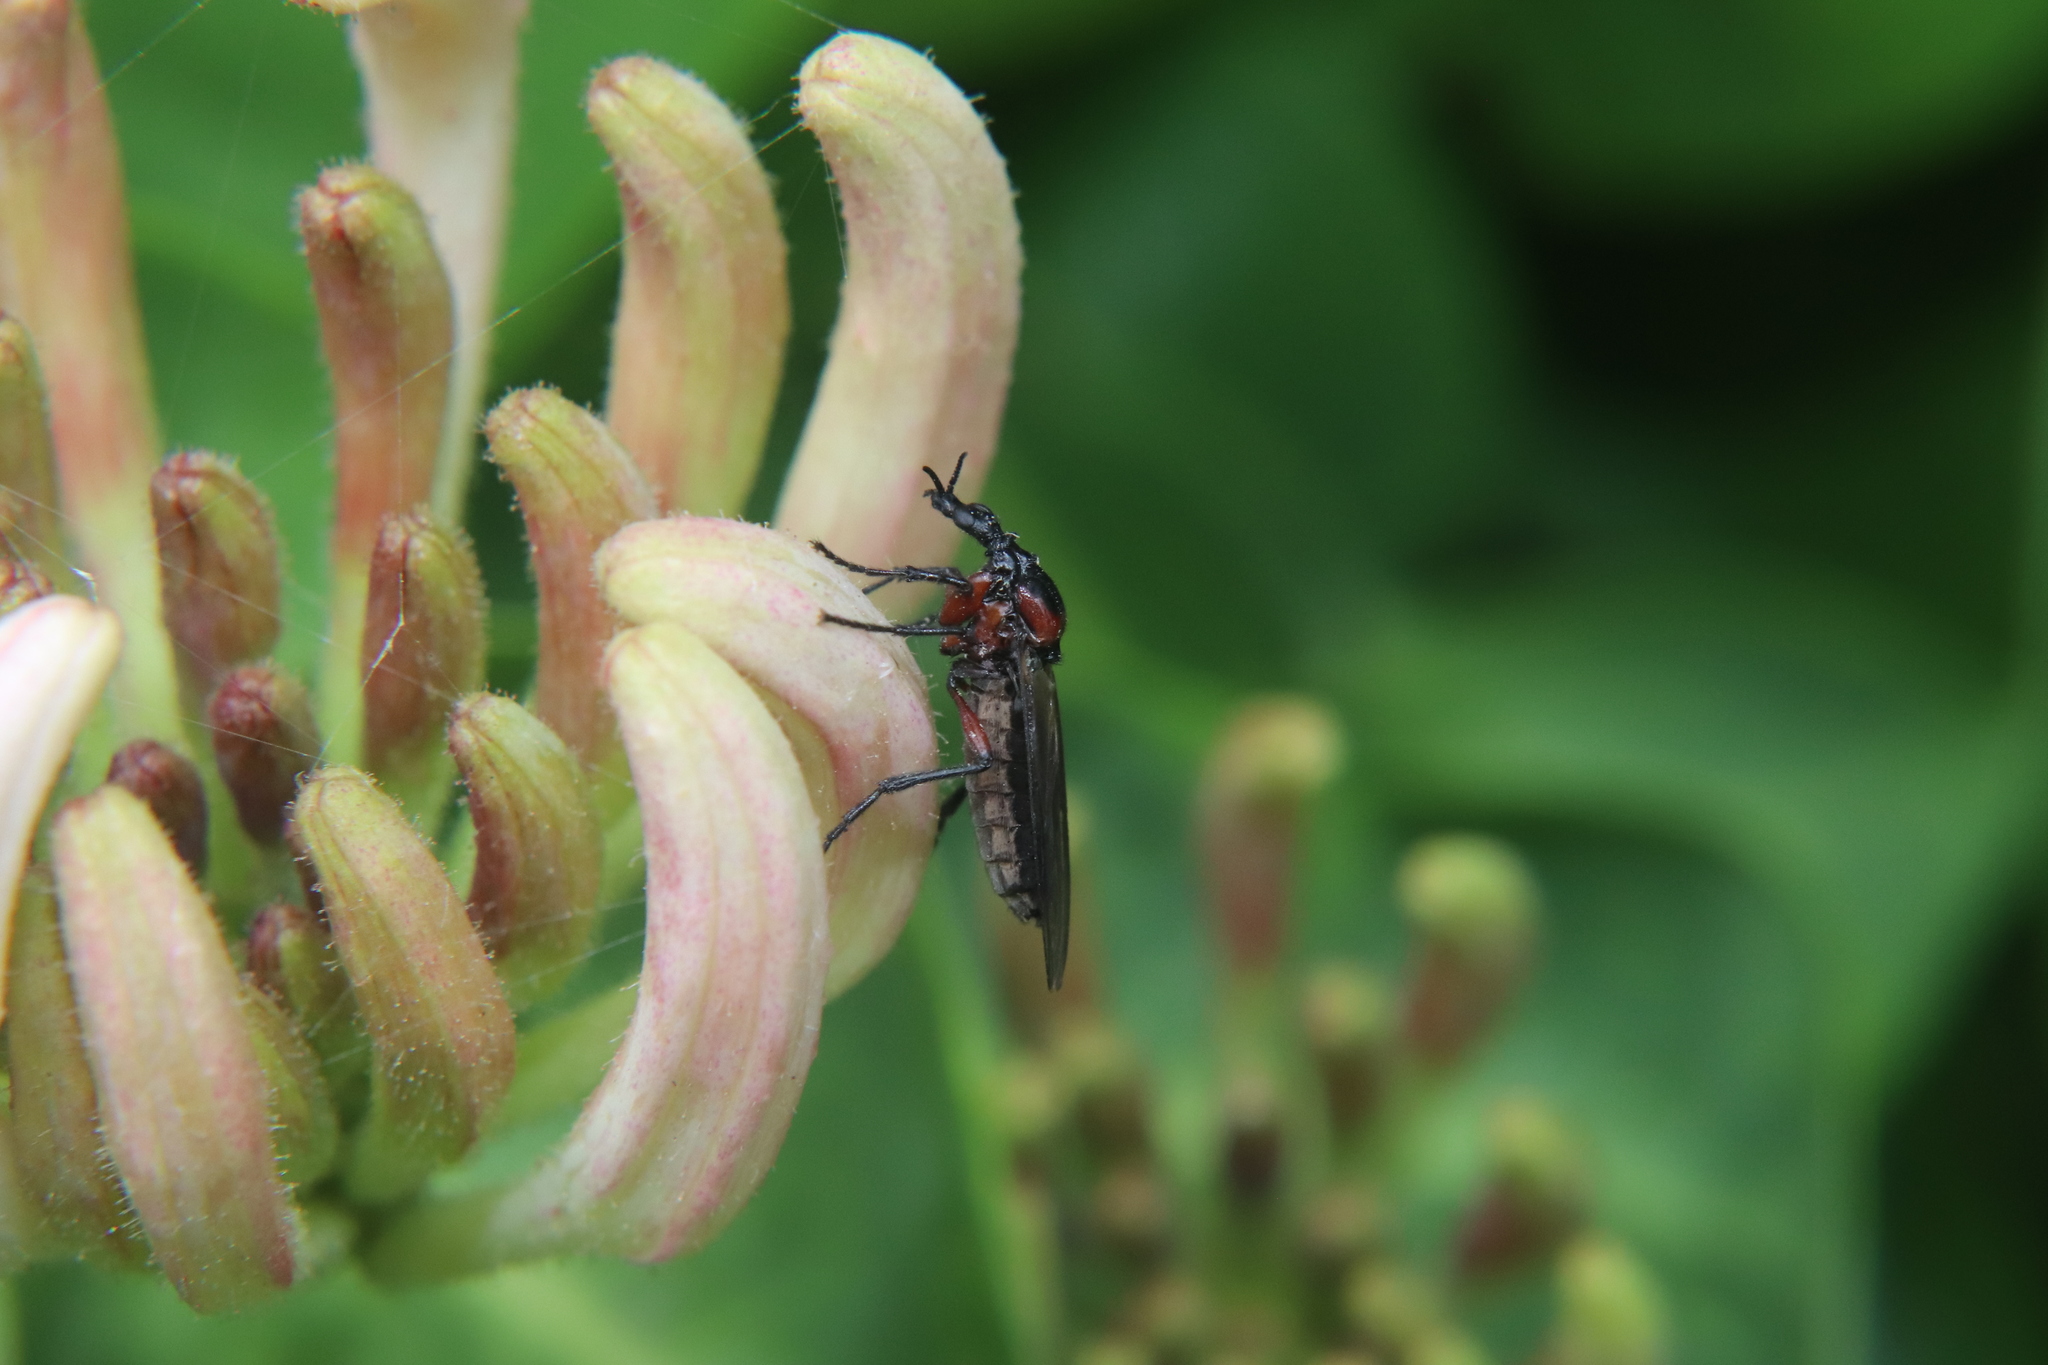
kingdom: Animalia
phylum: Arthropoda
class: Insecta
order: Diptera
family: Bibionidae
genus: Dilophus
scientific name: Dilophus nigrostigma
